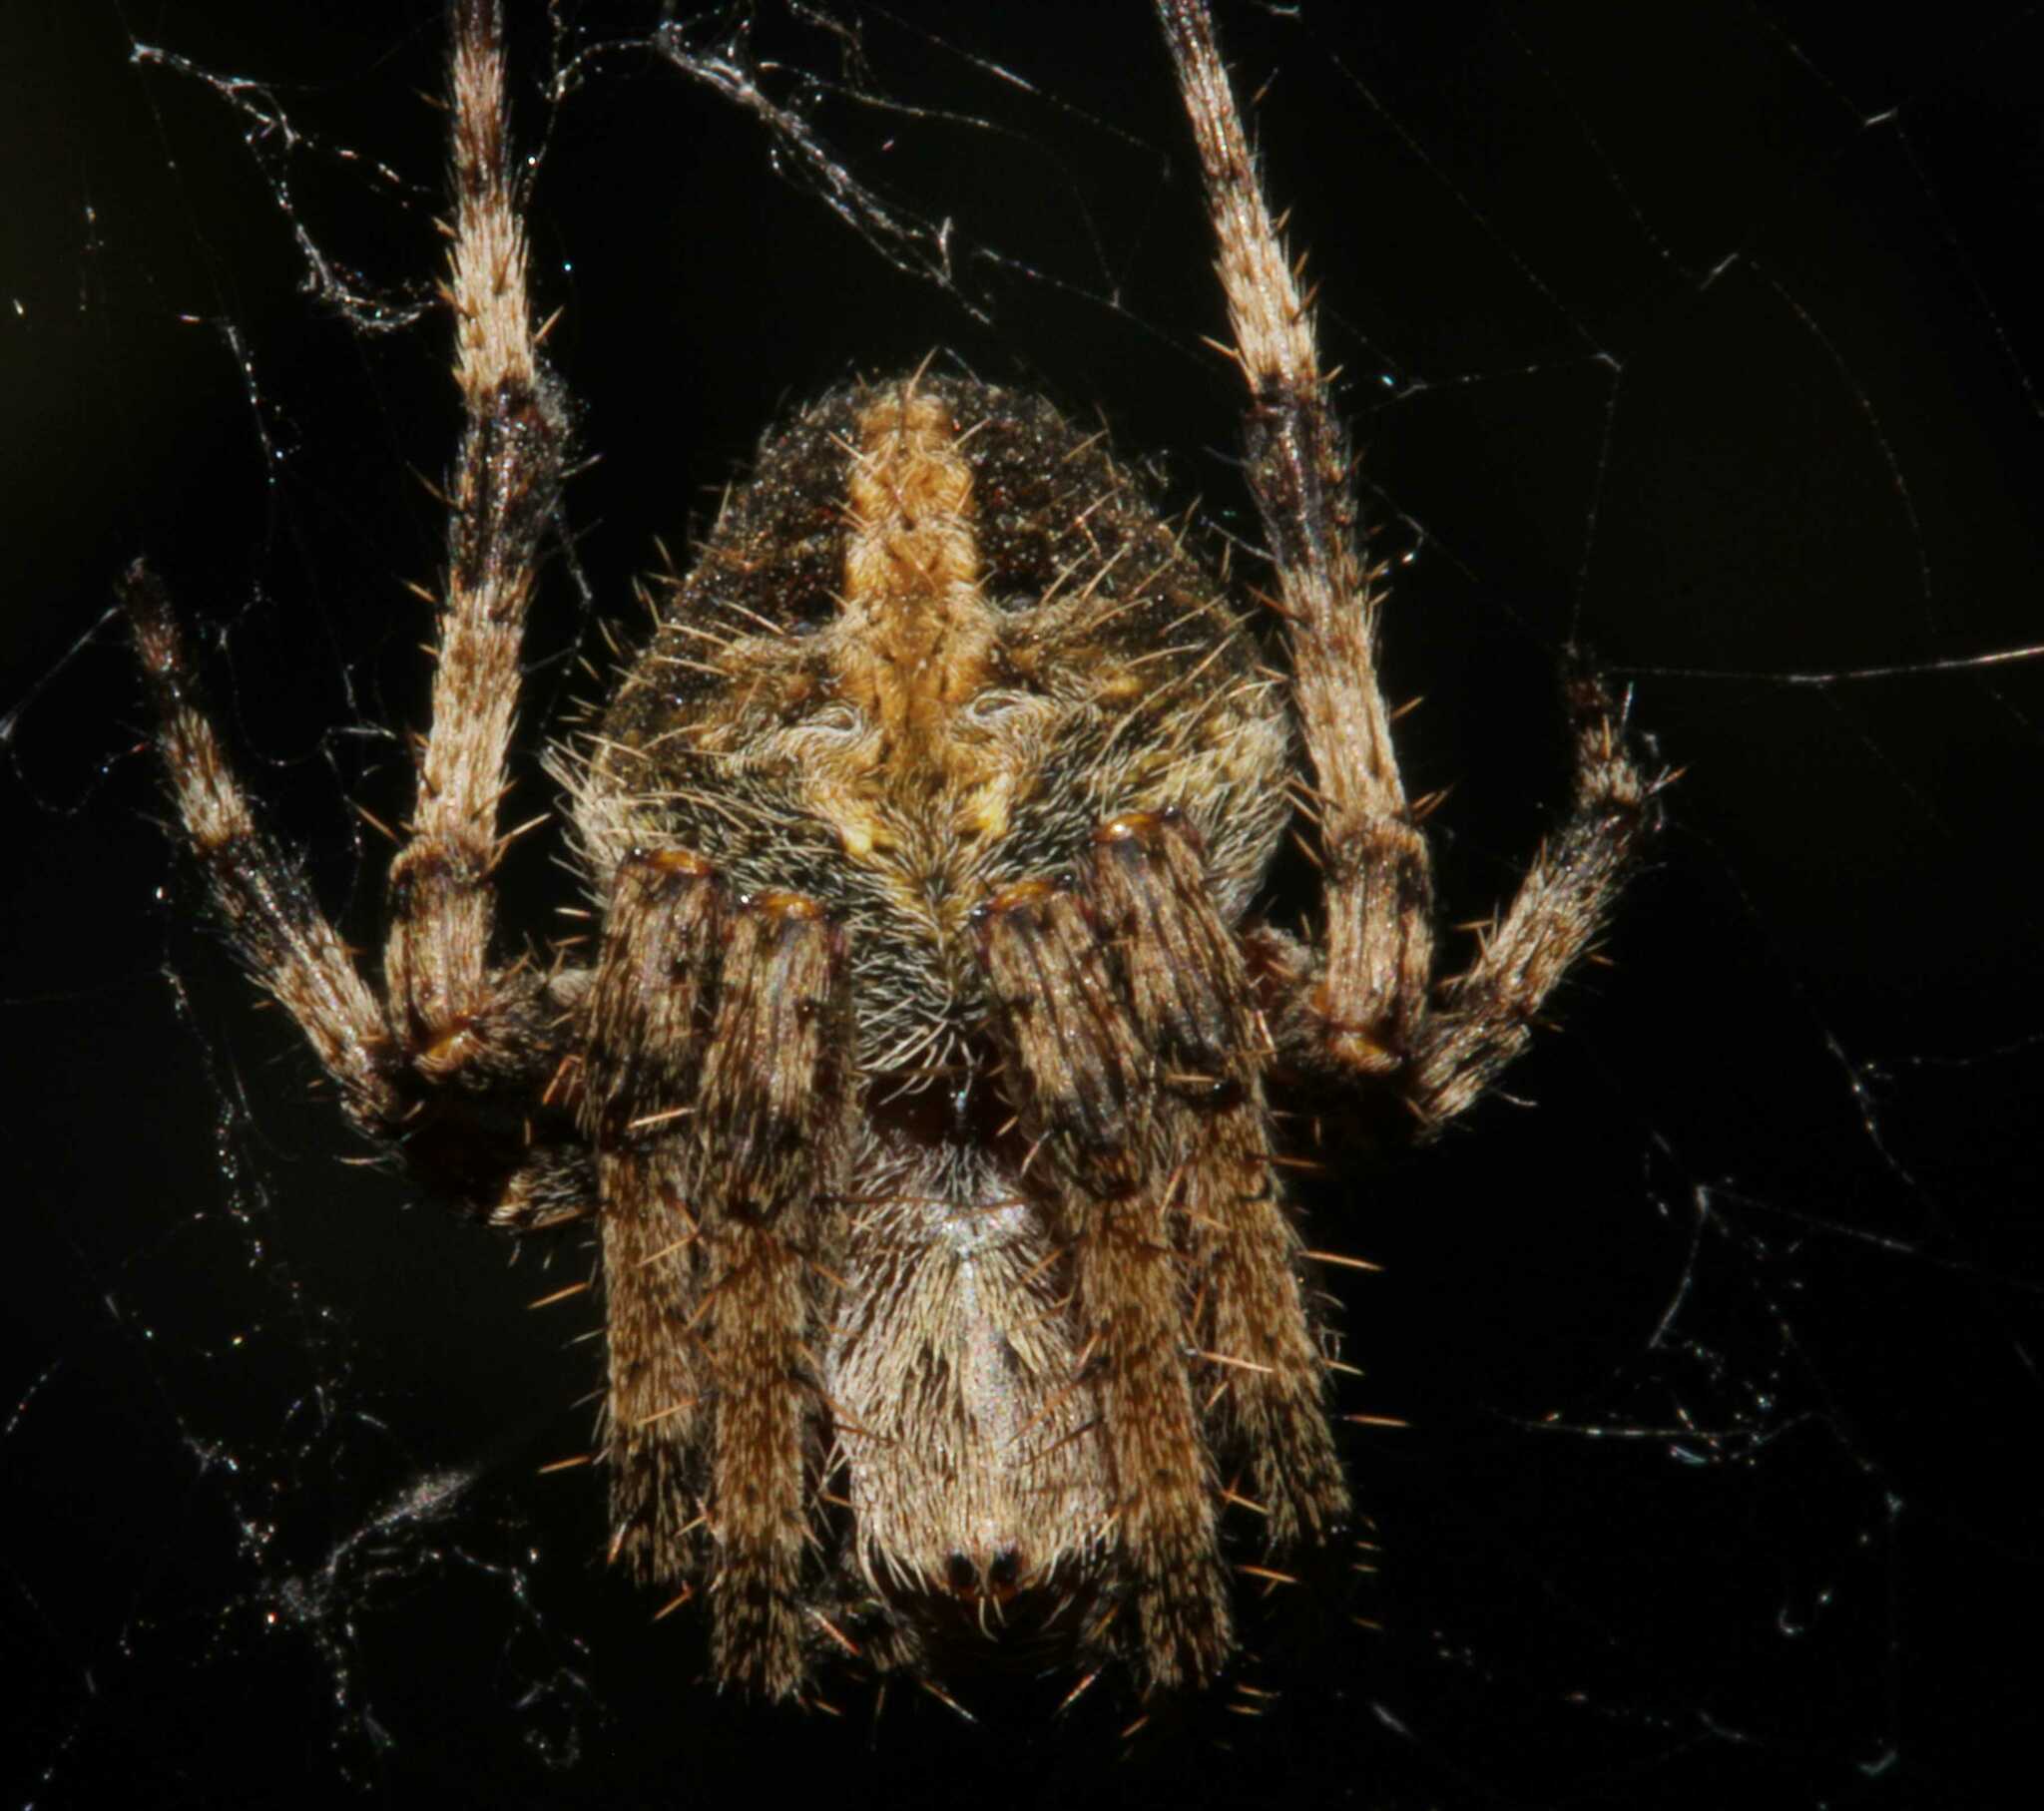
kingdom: Animalia
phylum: Arthropoda
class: Arachnida
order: Araneae
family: Araneidae
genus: Neoscona
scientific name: Neoscona crucifera
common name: Spotted orbweaver
